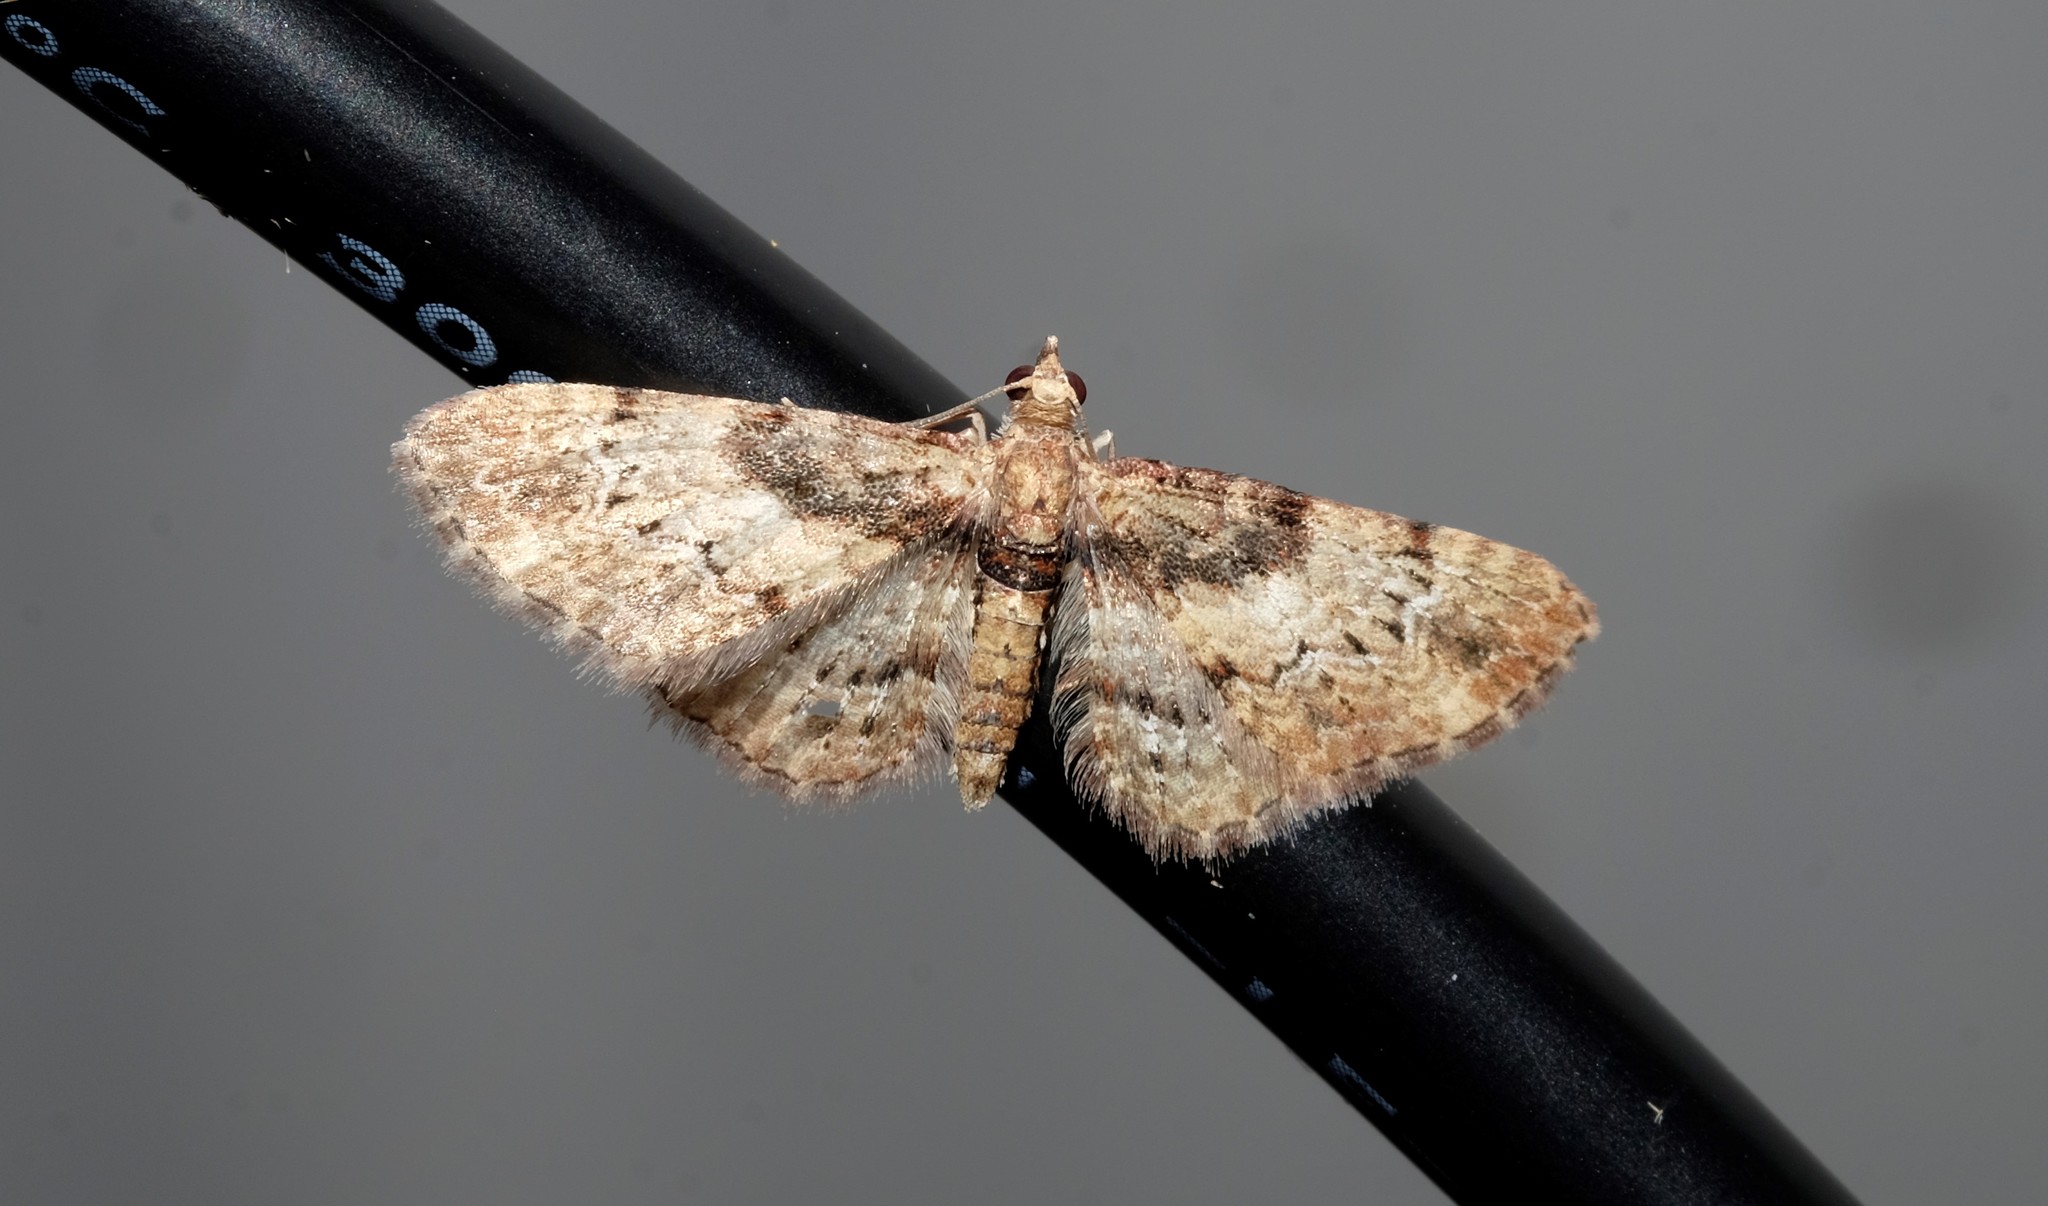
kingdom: Animalia
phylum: Arthropoda
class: Insecta
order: Lepidoptera
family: Geometridae
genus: Chloroclystis
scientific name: Chloroclystis approximata
